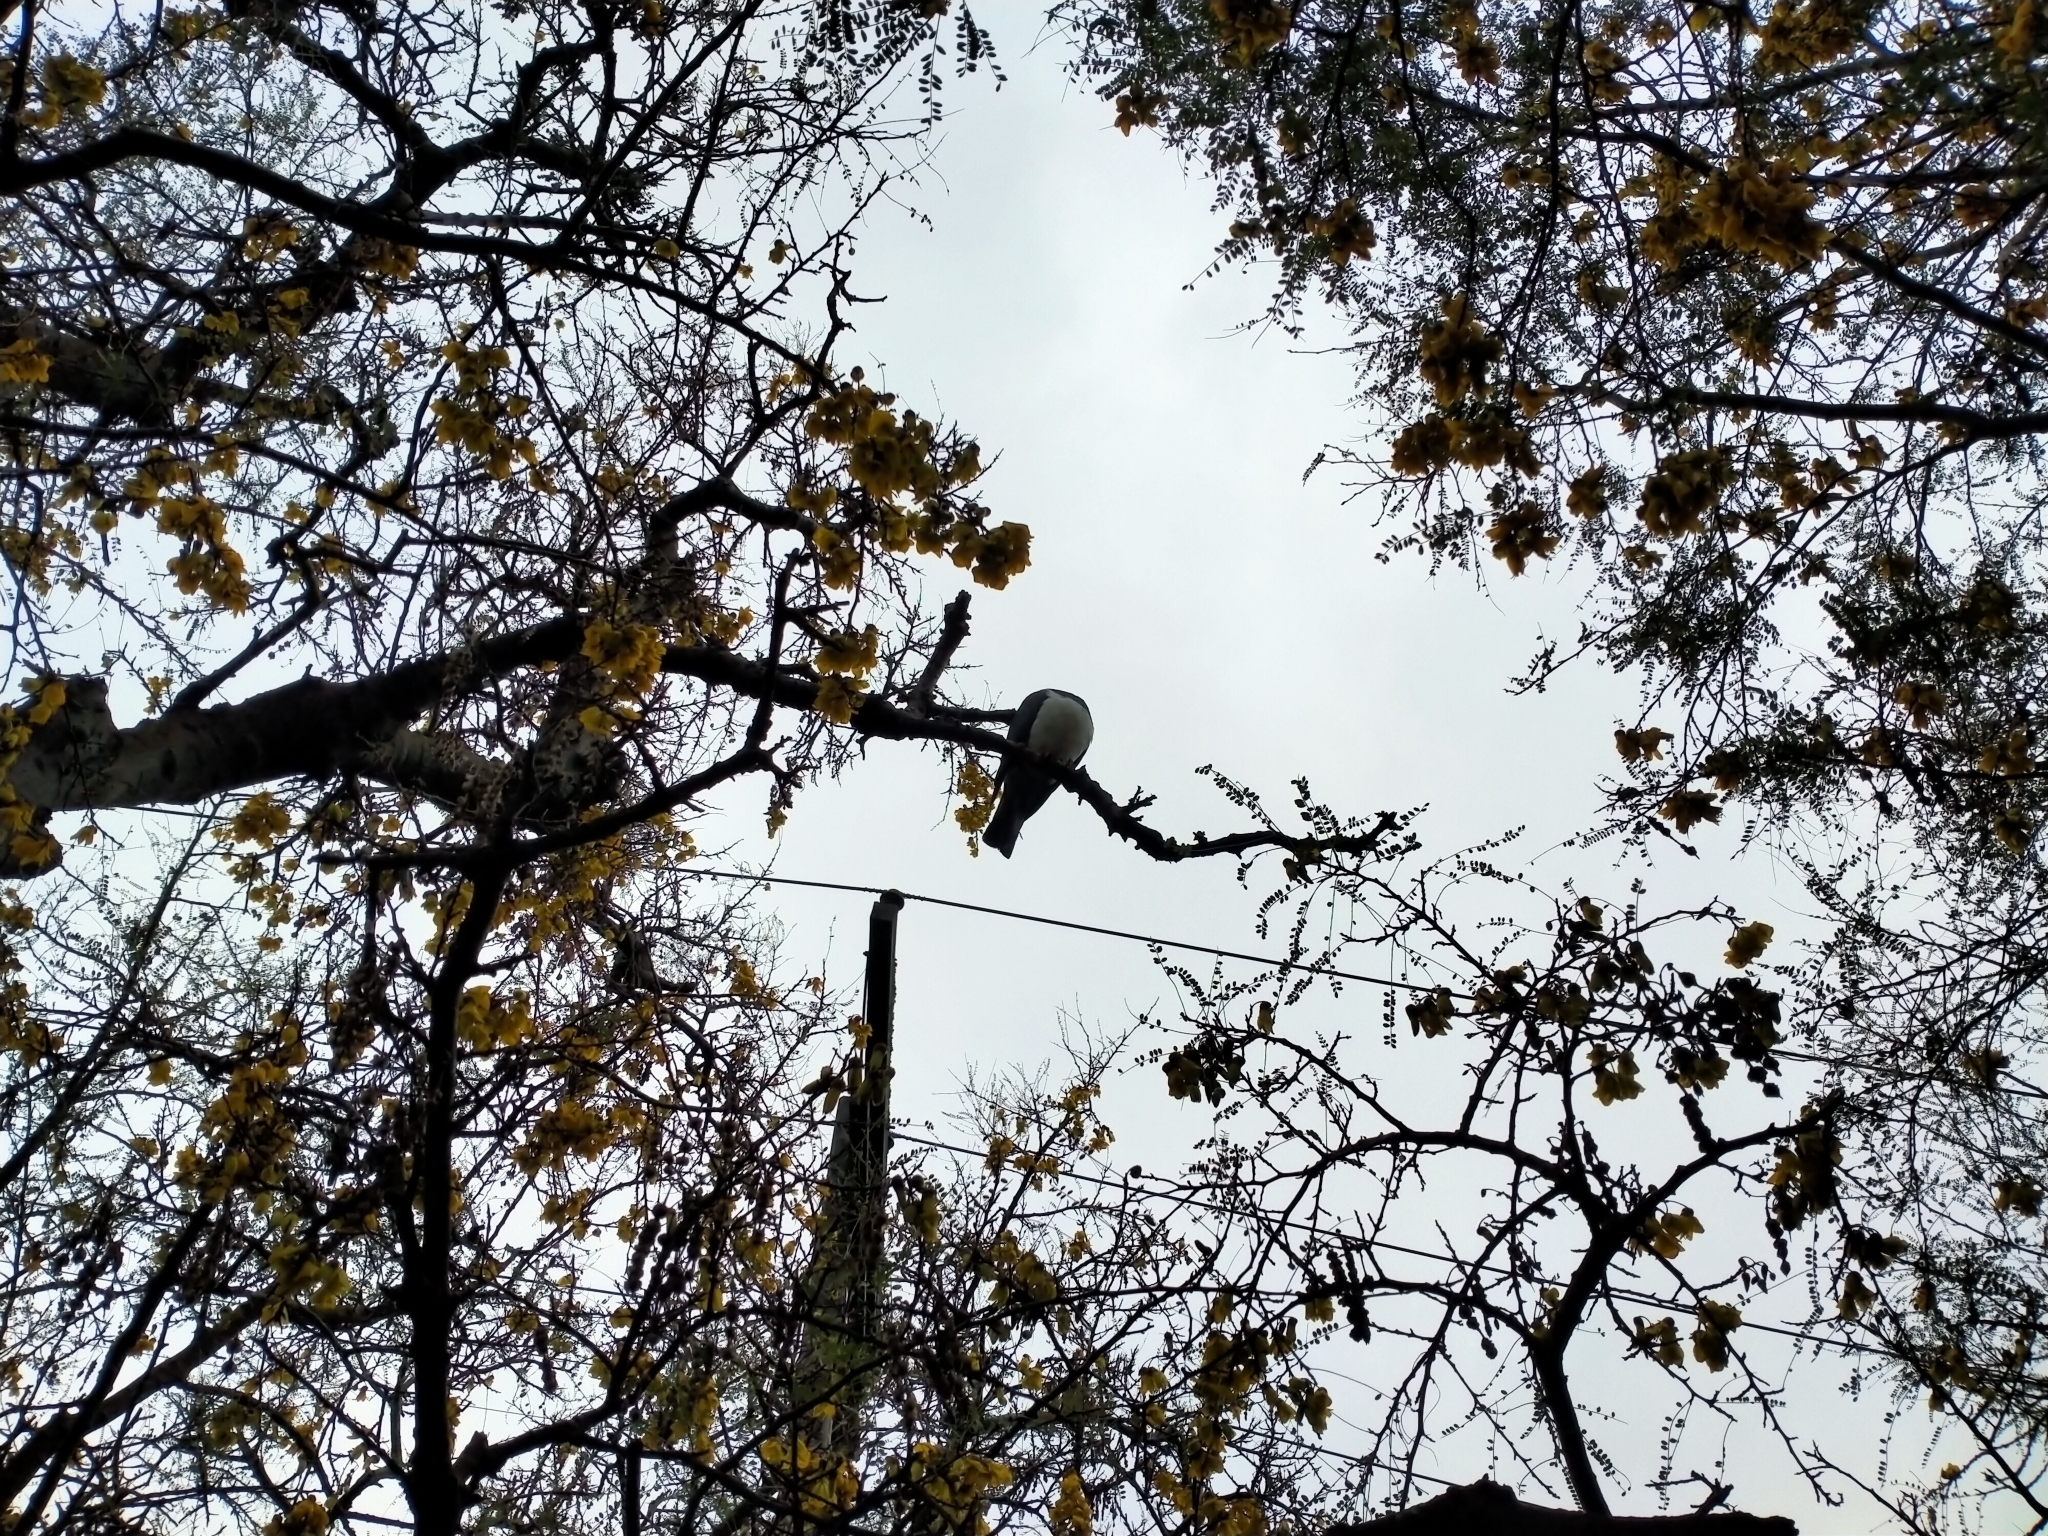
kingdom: Animalia
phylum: Chordata
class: Aves
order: Columbiformes
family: Columbidae
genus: Hemiphaga
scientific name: Hemiphaga novaeseelandiae
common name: New zealand pigeon
